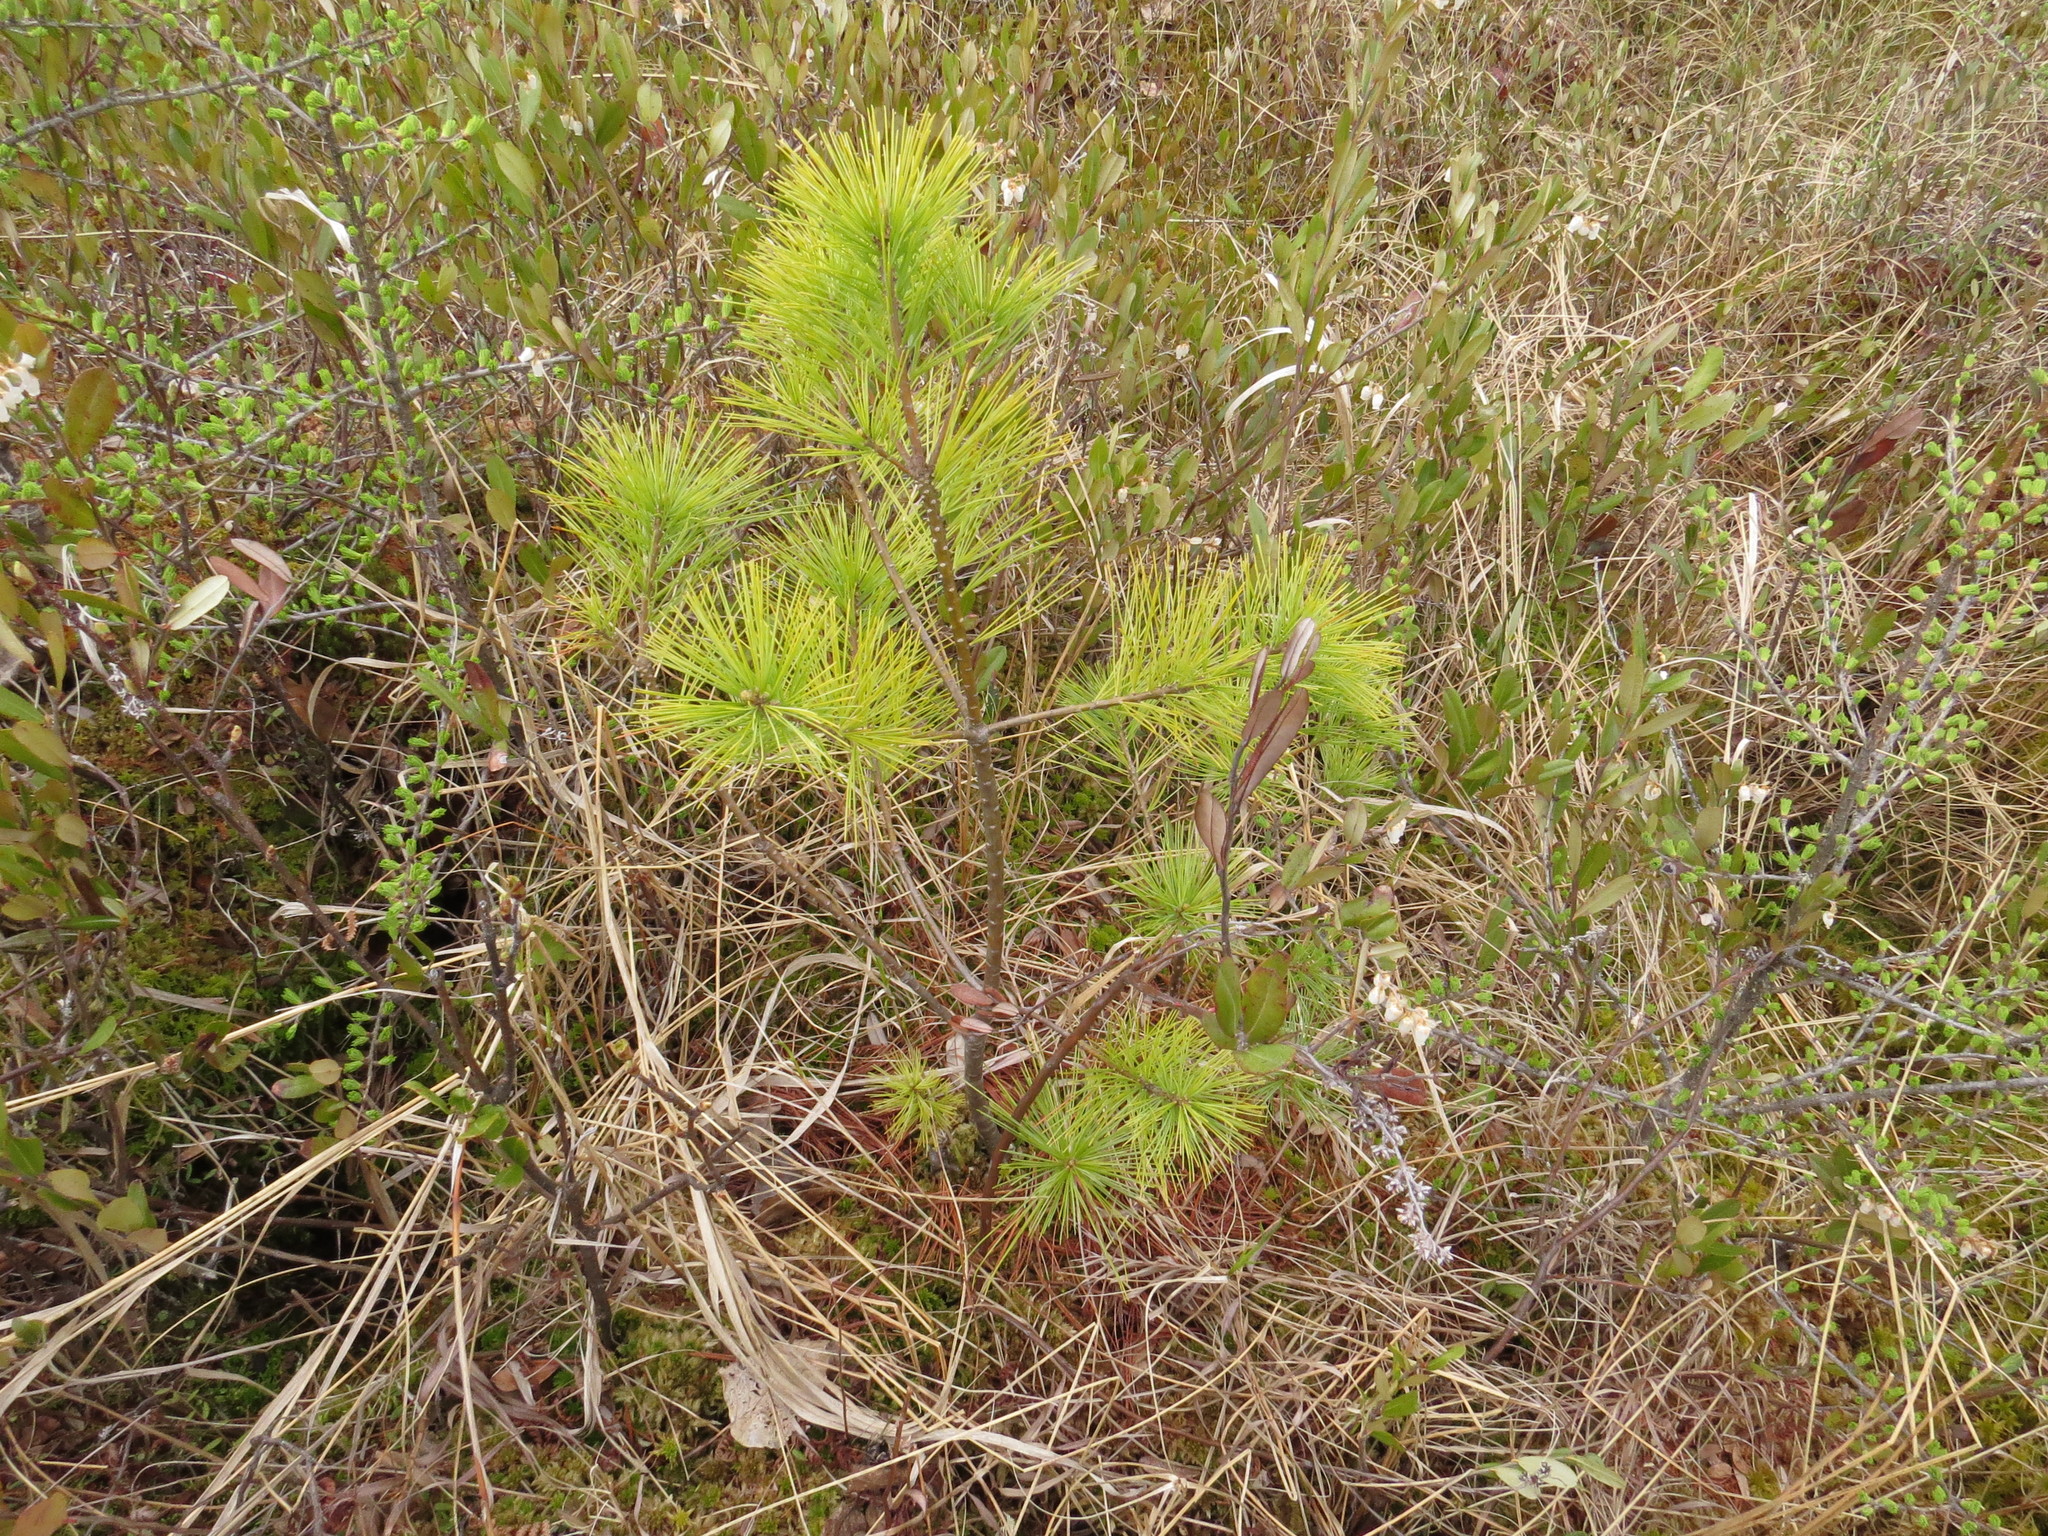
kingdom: Plantae
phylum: Tracheophyta
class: Pinopsida
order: Pinales
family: Pinaceae
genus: Pinus
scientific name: Pinus strobus
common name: Weymouth pine
